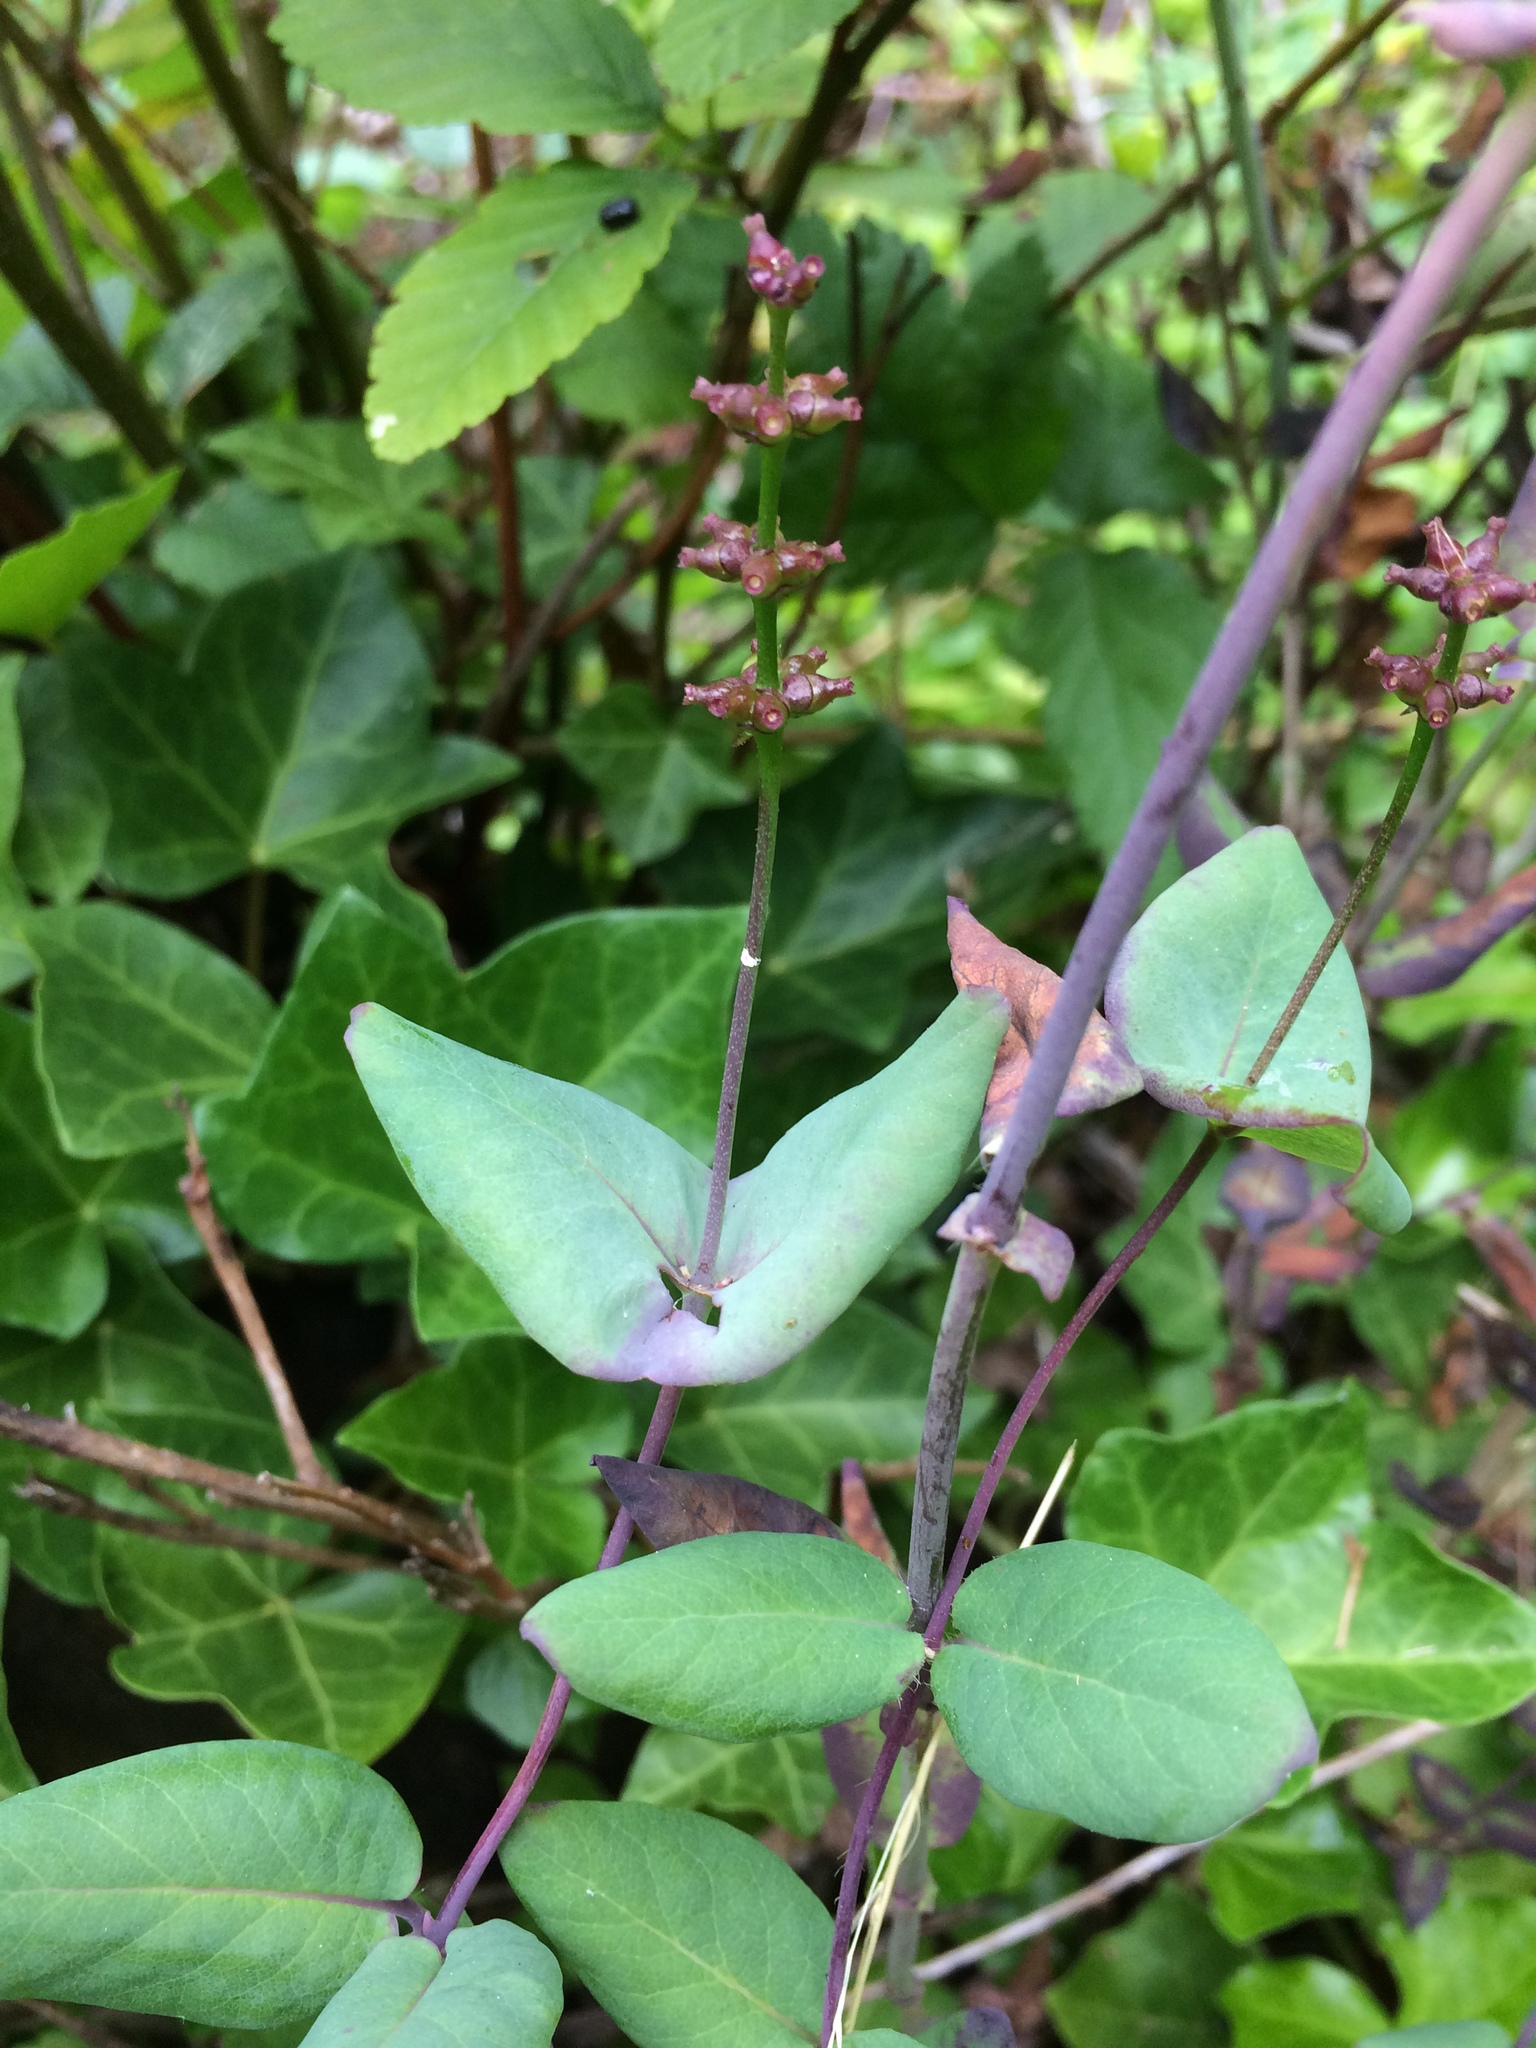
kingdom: Plantae
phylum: Tracheophyta
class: Magnoliopsida
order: Dipsacales
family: Caprifoliaceae
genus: Lonicera
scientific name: Lonicera hispidula
